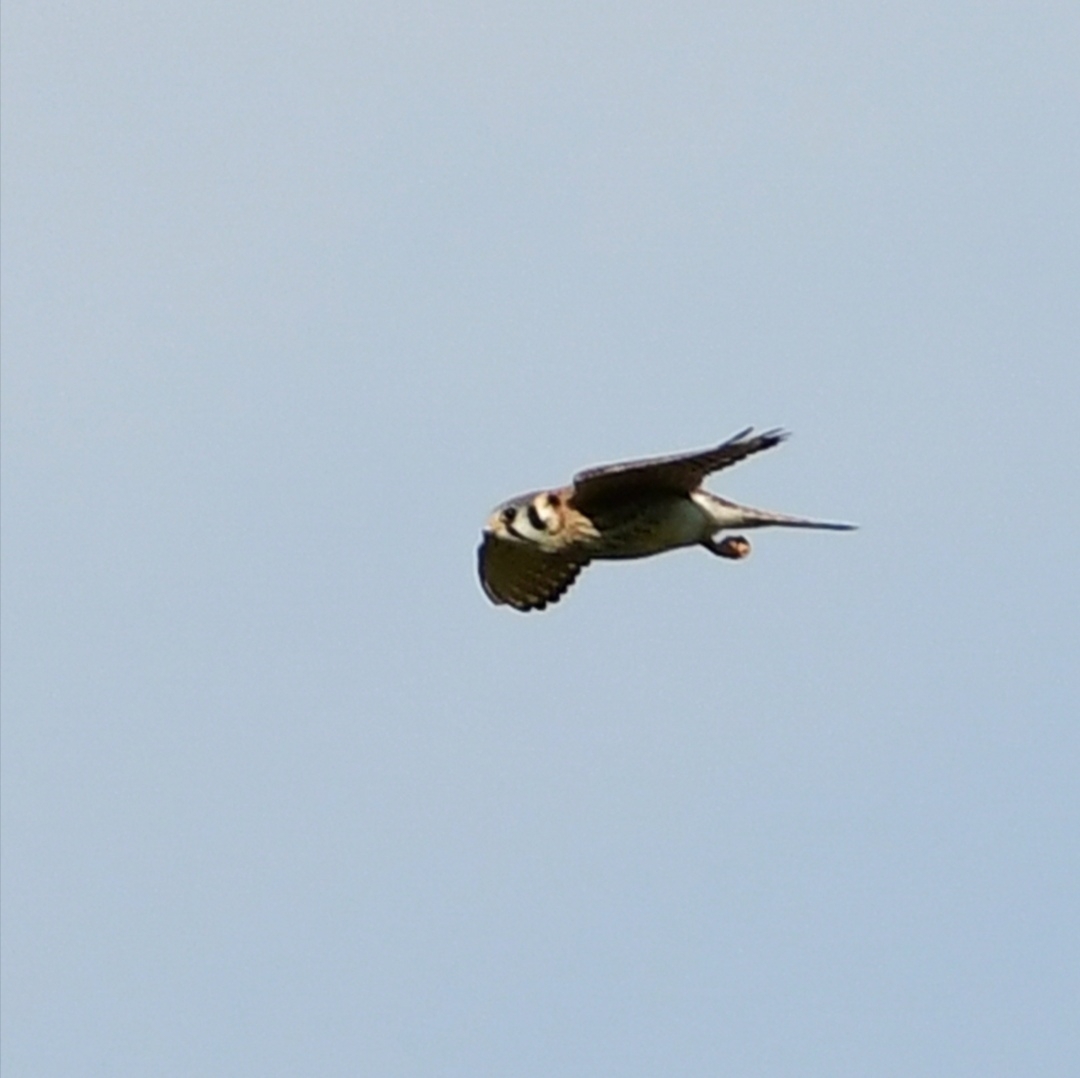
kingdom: Animalia
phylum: Chordata
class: Aves
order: Falconiformes
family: Falconidae
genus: Falco
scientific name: Falco sparverius
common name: American kestrel
